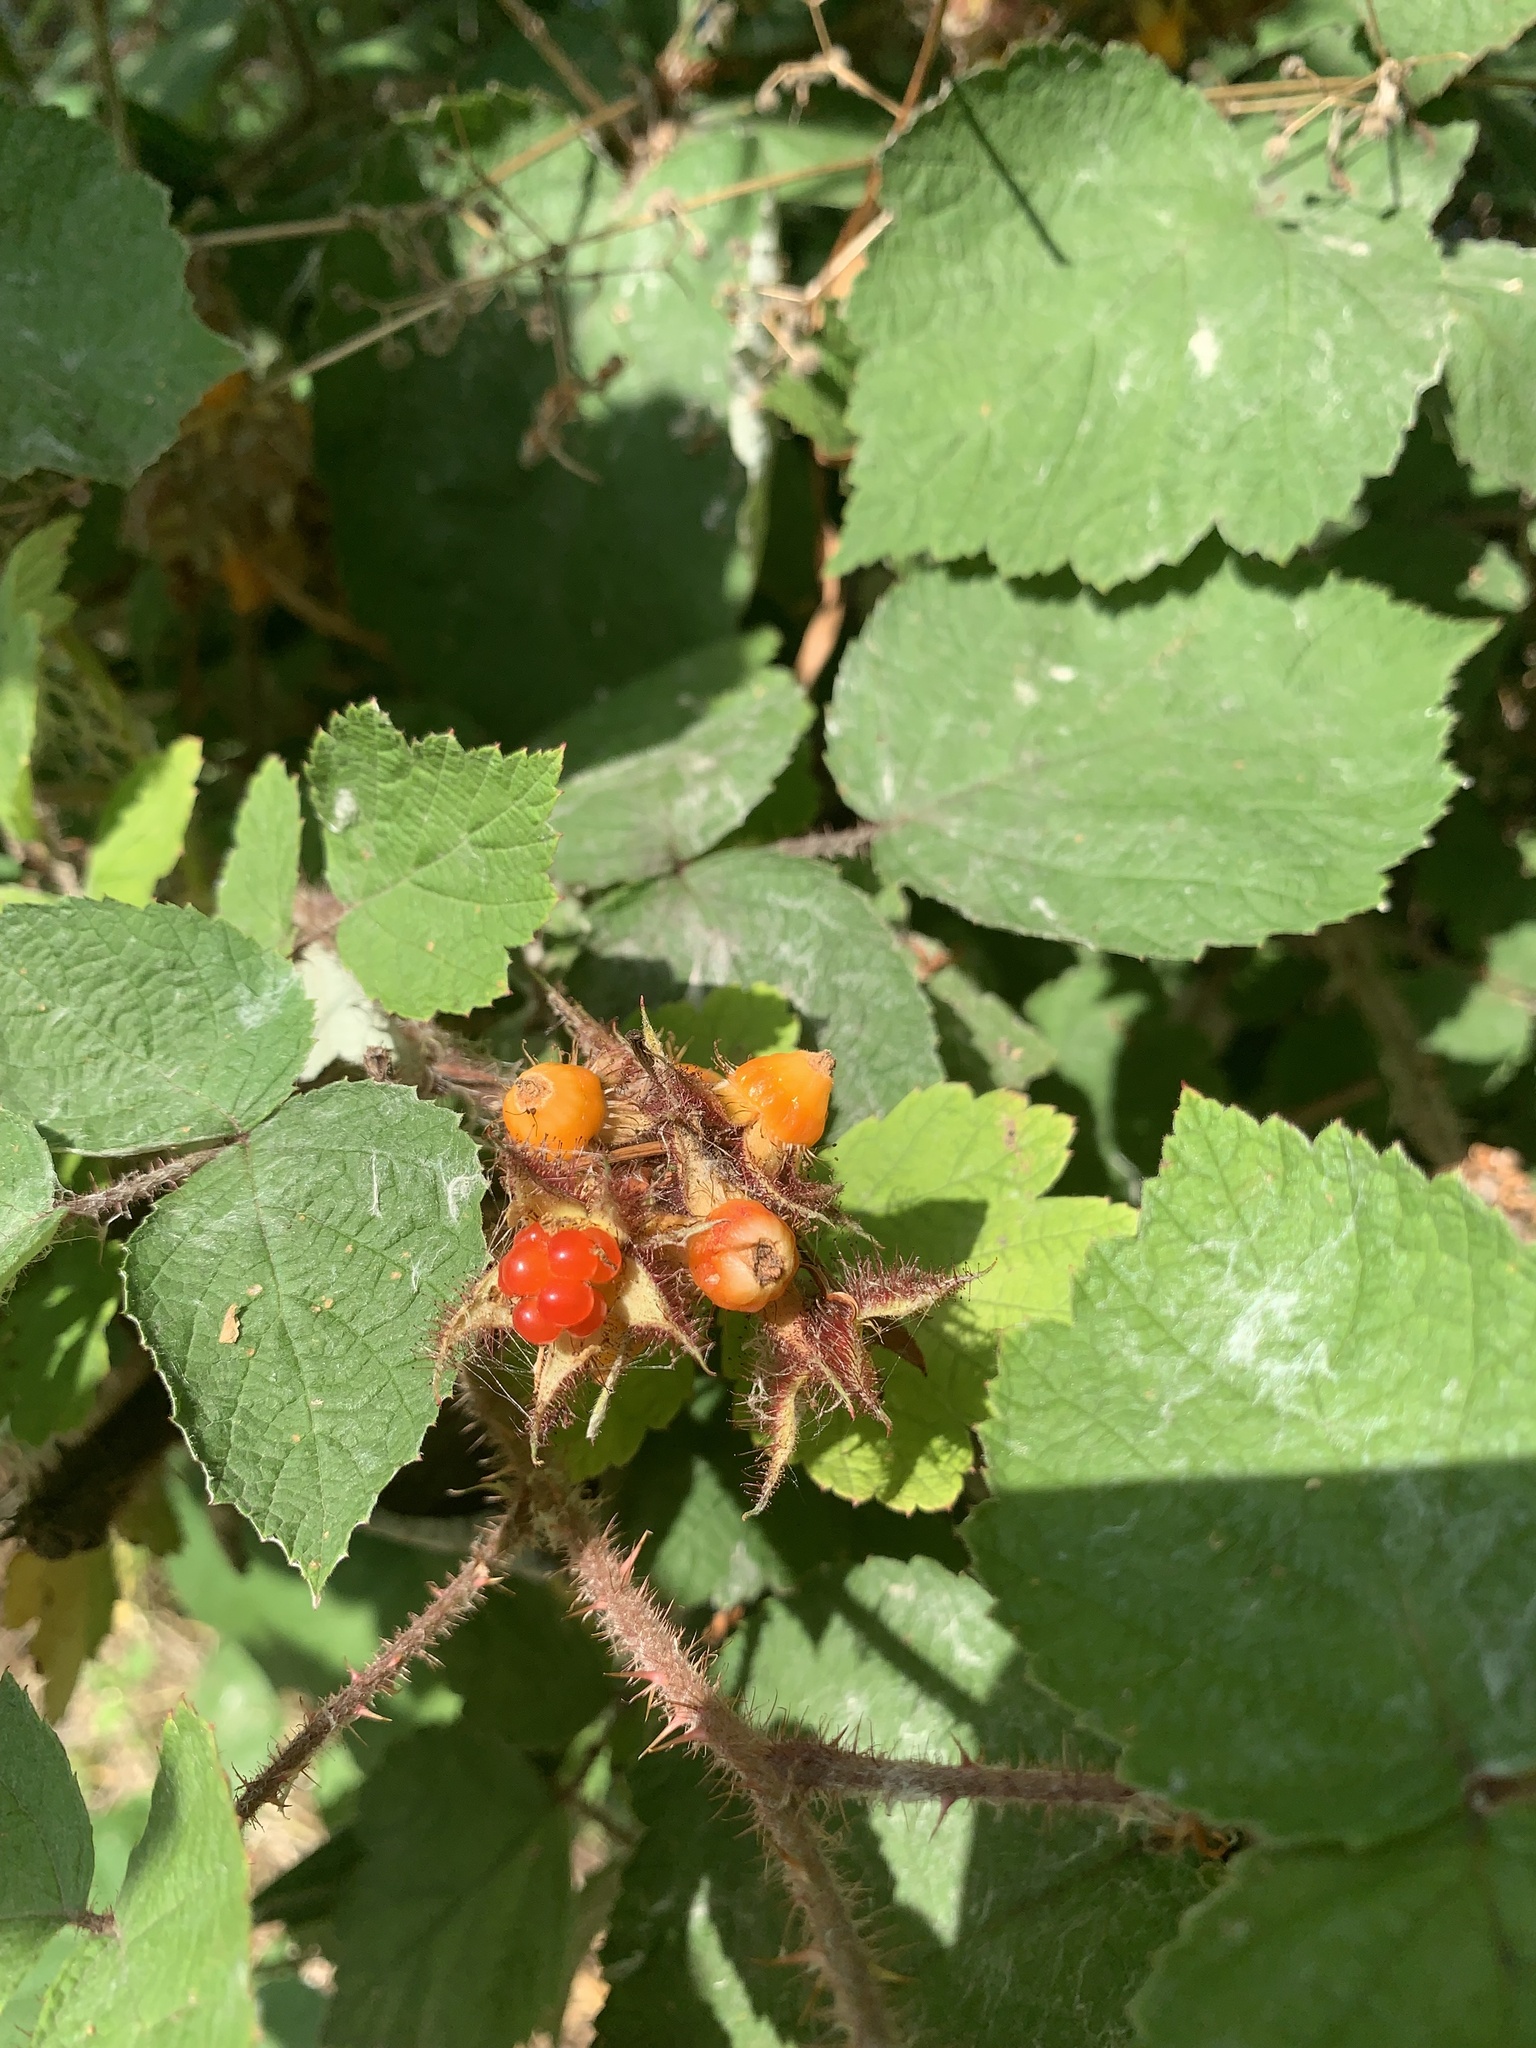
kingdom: Plantae
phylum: Tracheophyta
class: Magnoliopsida
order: Rosales
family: Rosaceae
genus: Rubus
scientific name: Rubus phoenicolasius
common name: Japanese wineberry
